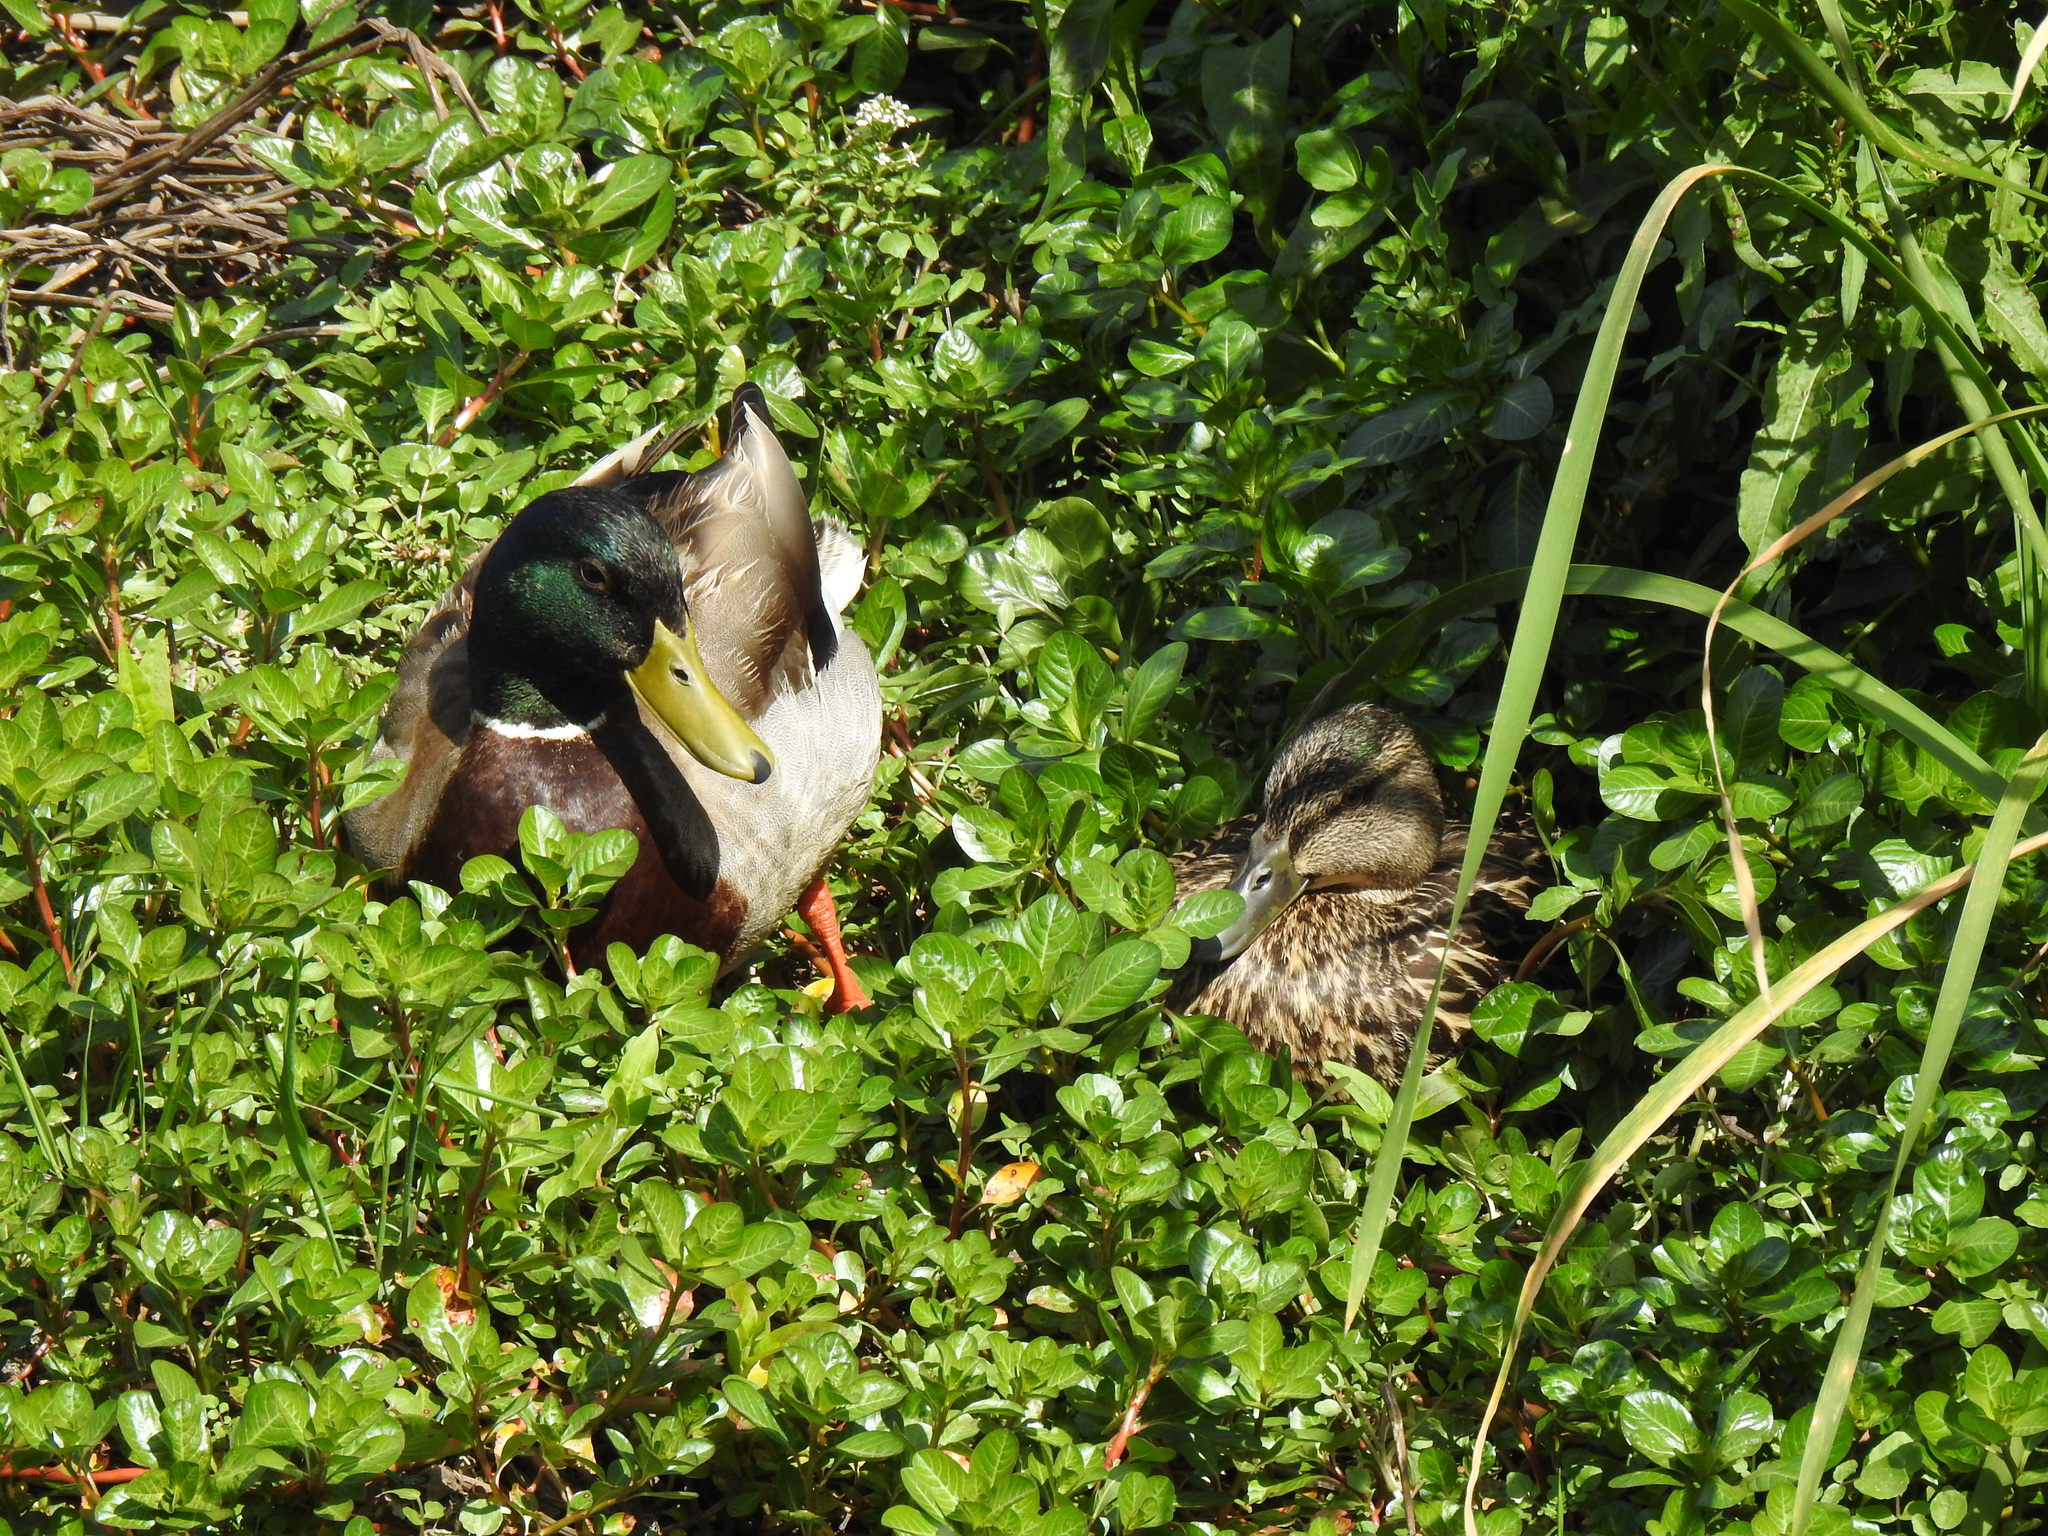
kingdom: Animalia
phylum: Chordata
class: Aves
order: Anseriformes
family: Anatidae
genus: Anas
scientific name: Anas platyrhynchos
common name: Mallard
